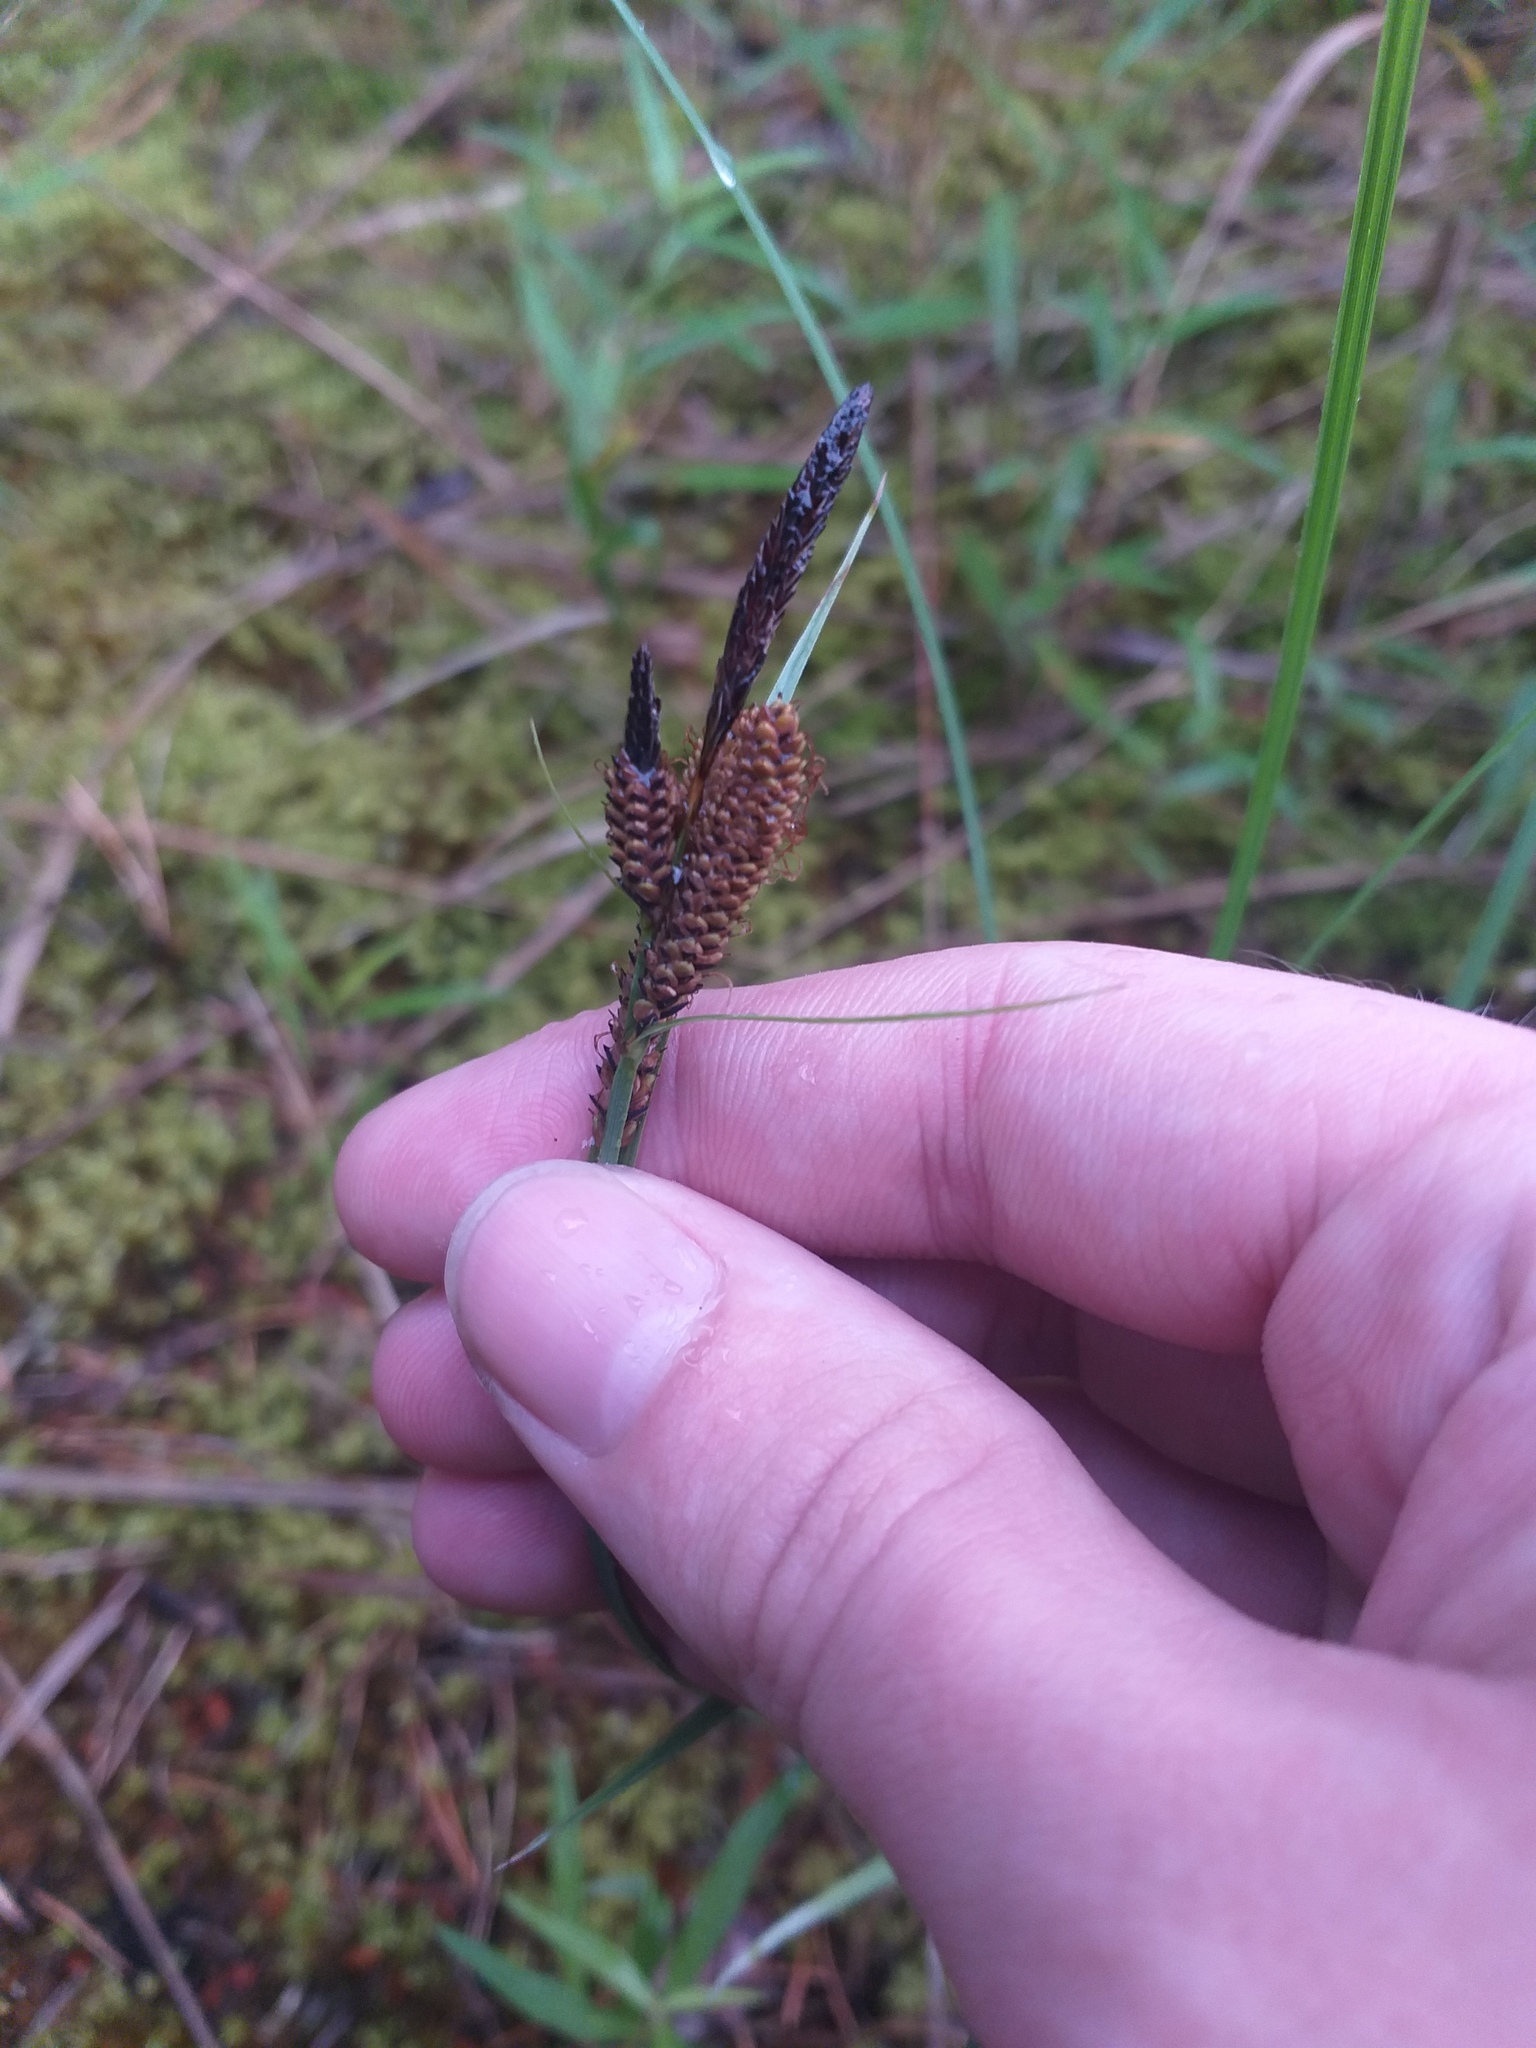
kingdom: Plantae
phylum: Tracheophyta
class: Liliopsida
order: Poales
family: Cyperaceae
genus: Carex
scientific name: Carex nigra
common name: Common sedge
